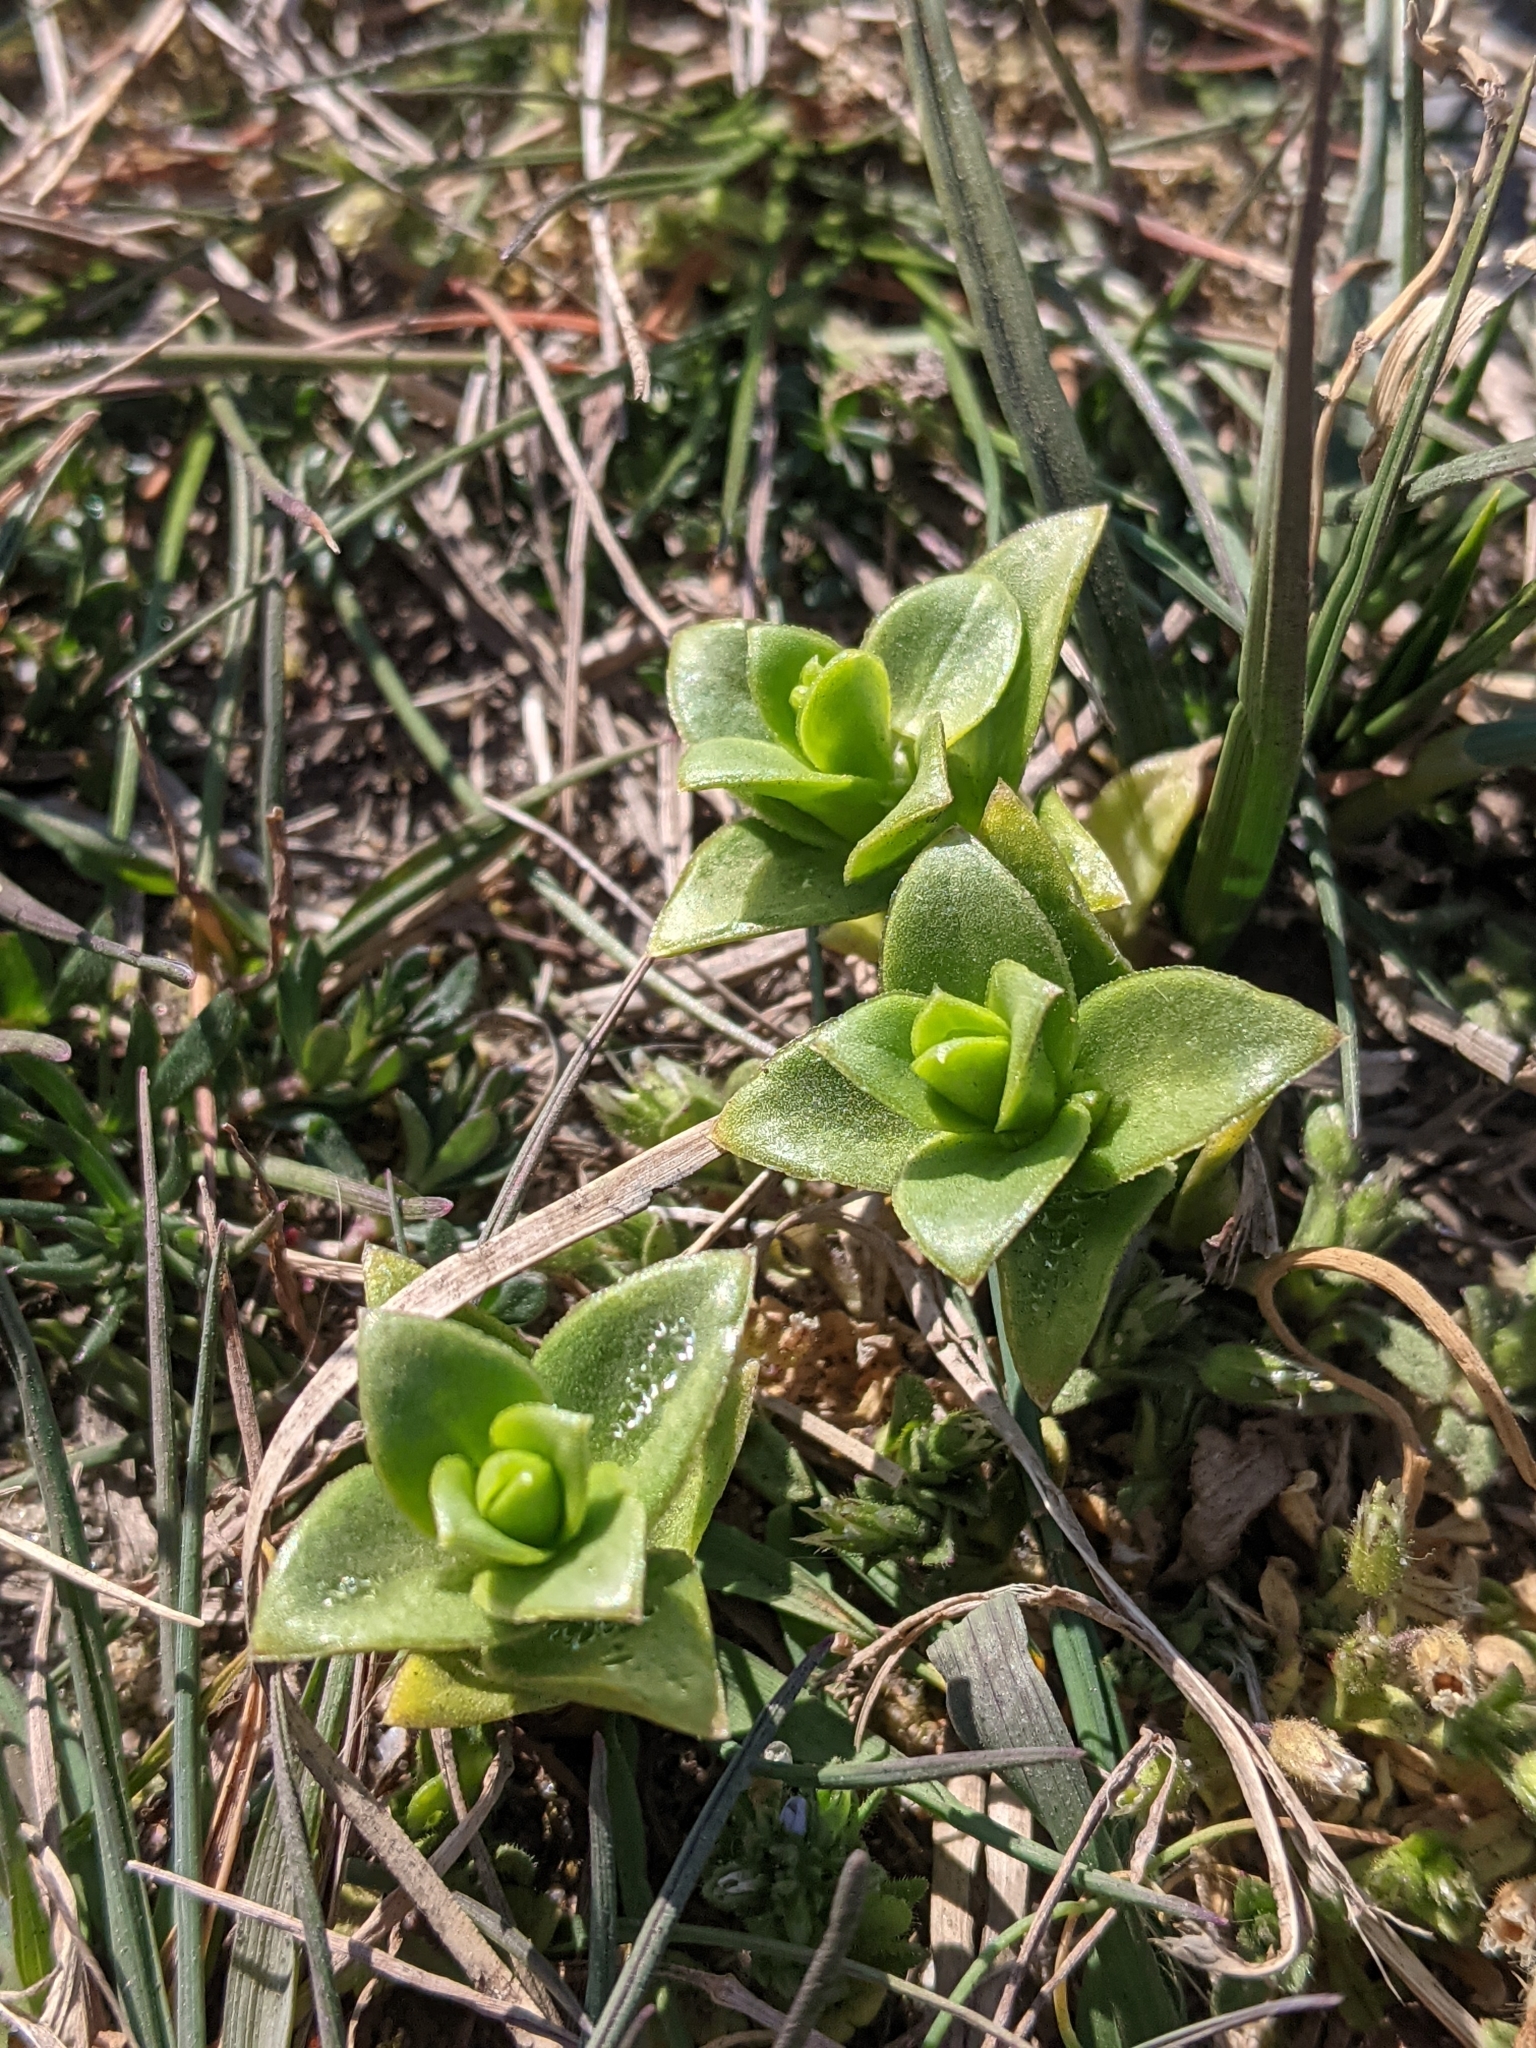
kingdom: Plantae
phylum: Tracheophyta
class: Magnoliopsida
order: Caryophyllales
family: Caryophyllaceae
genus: Honckenya
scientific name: Honckenya peploides
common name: Sea sandwort
